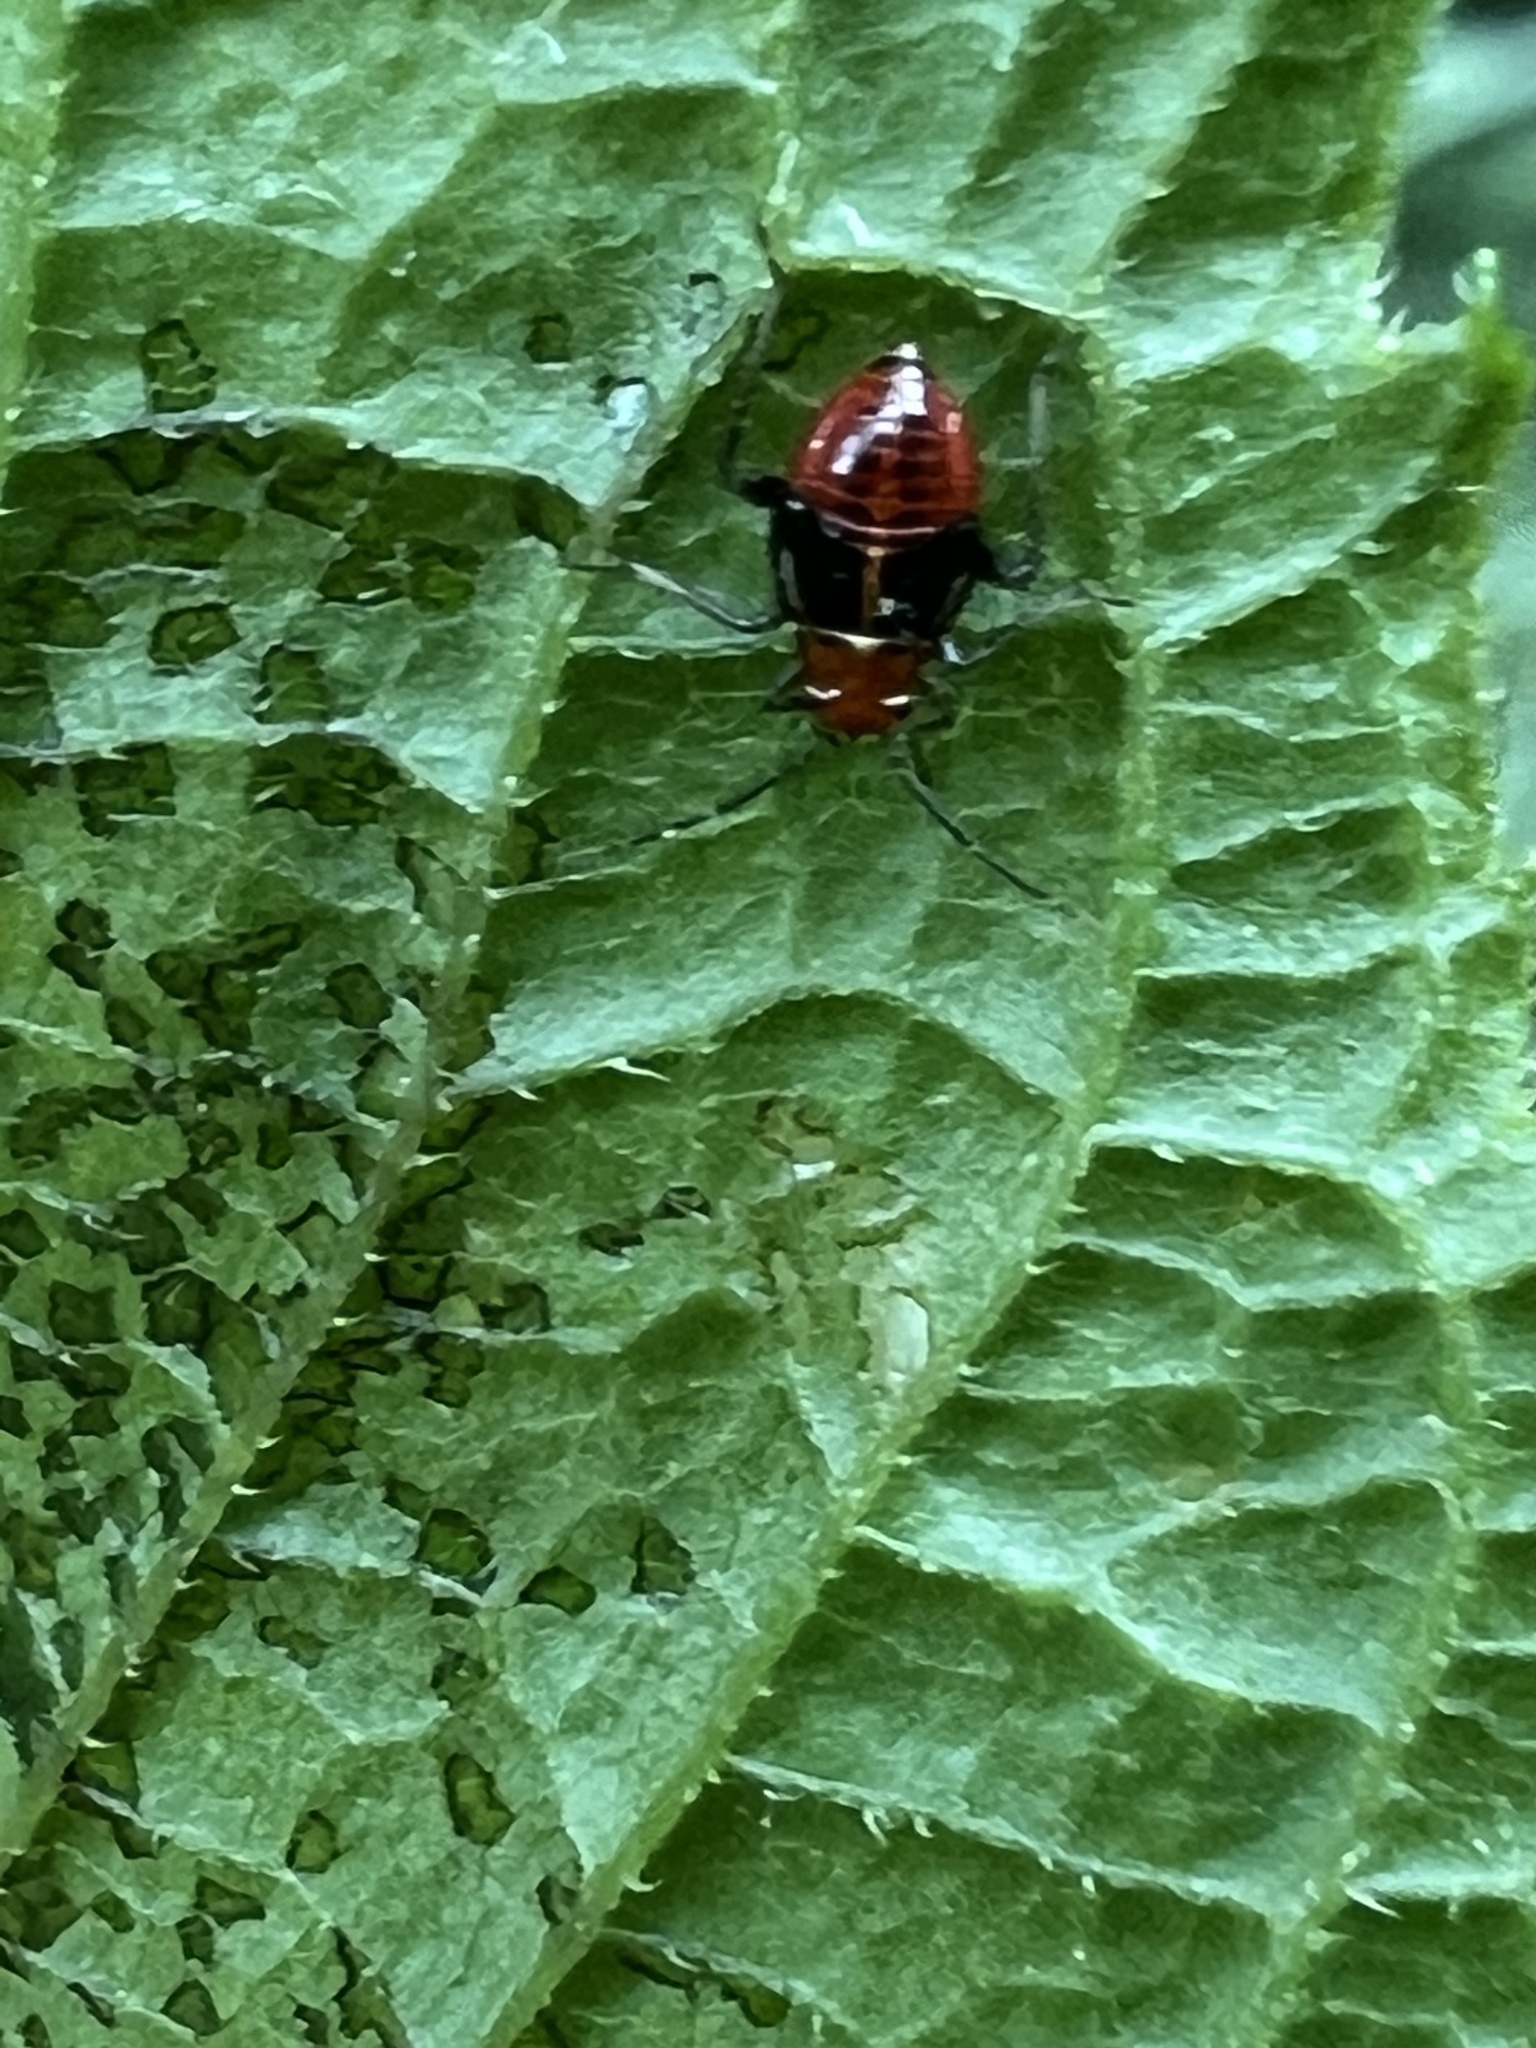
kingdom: Animalia
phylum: Arthropoda
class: Insecta
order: Hemiptera
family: Miridae
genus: Poecilocapsus
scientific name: Poecilocapsus lineatus
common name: Four-lined plant bug
